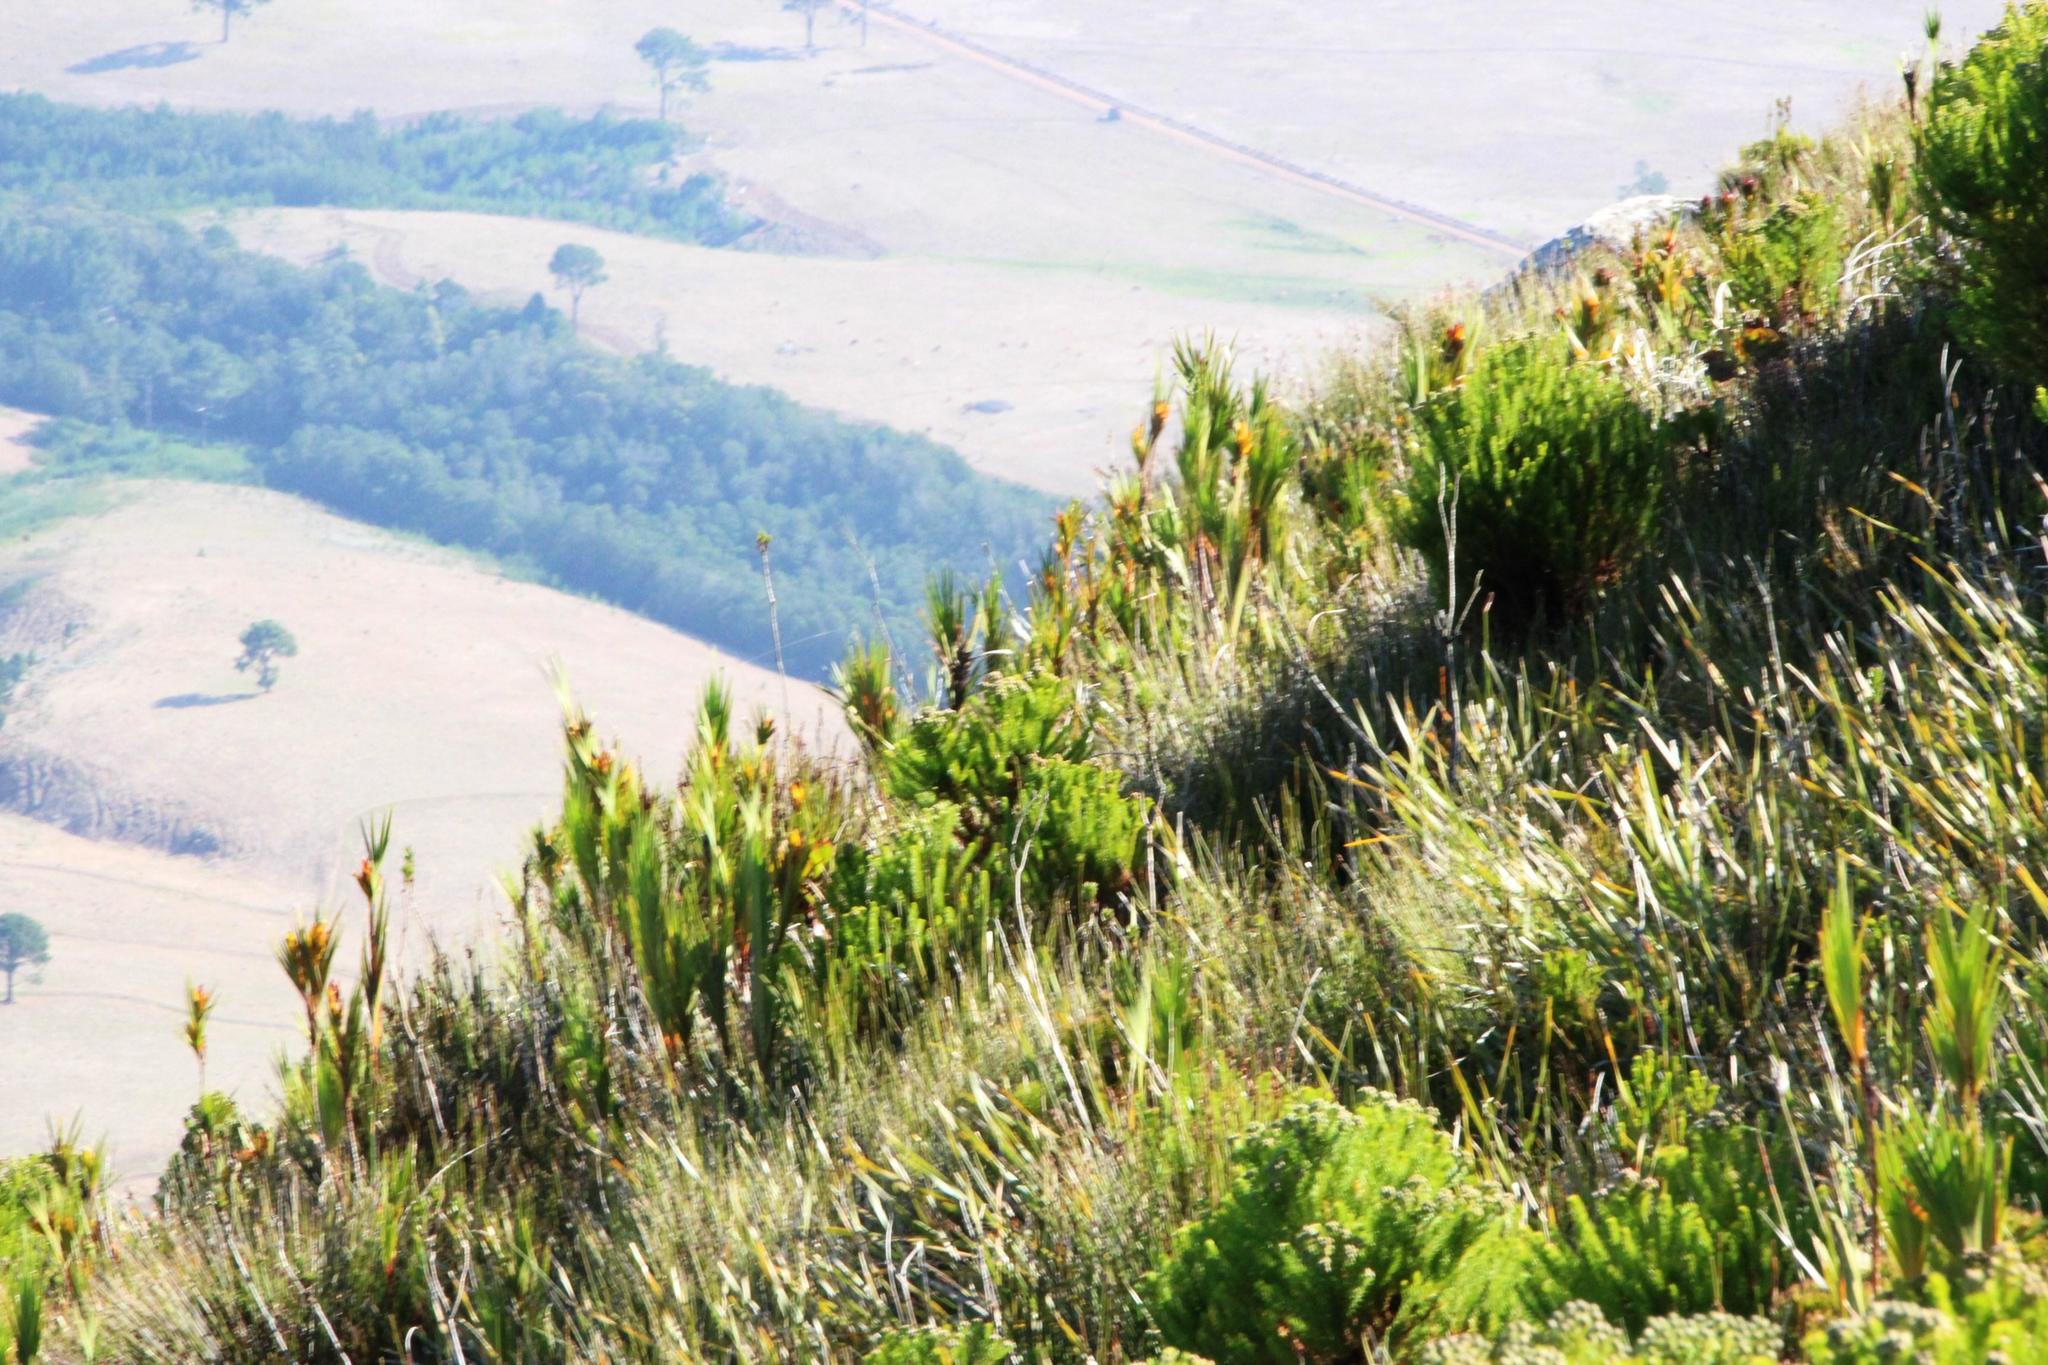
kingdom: Plantae
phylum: Tracheophyta
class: Liliopsida
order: Asparagales
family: Iridaceae
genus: Witsenia
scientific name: Witsenia maura
